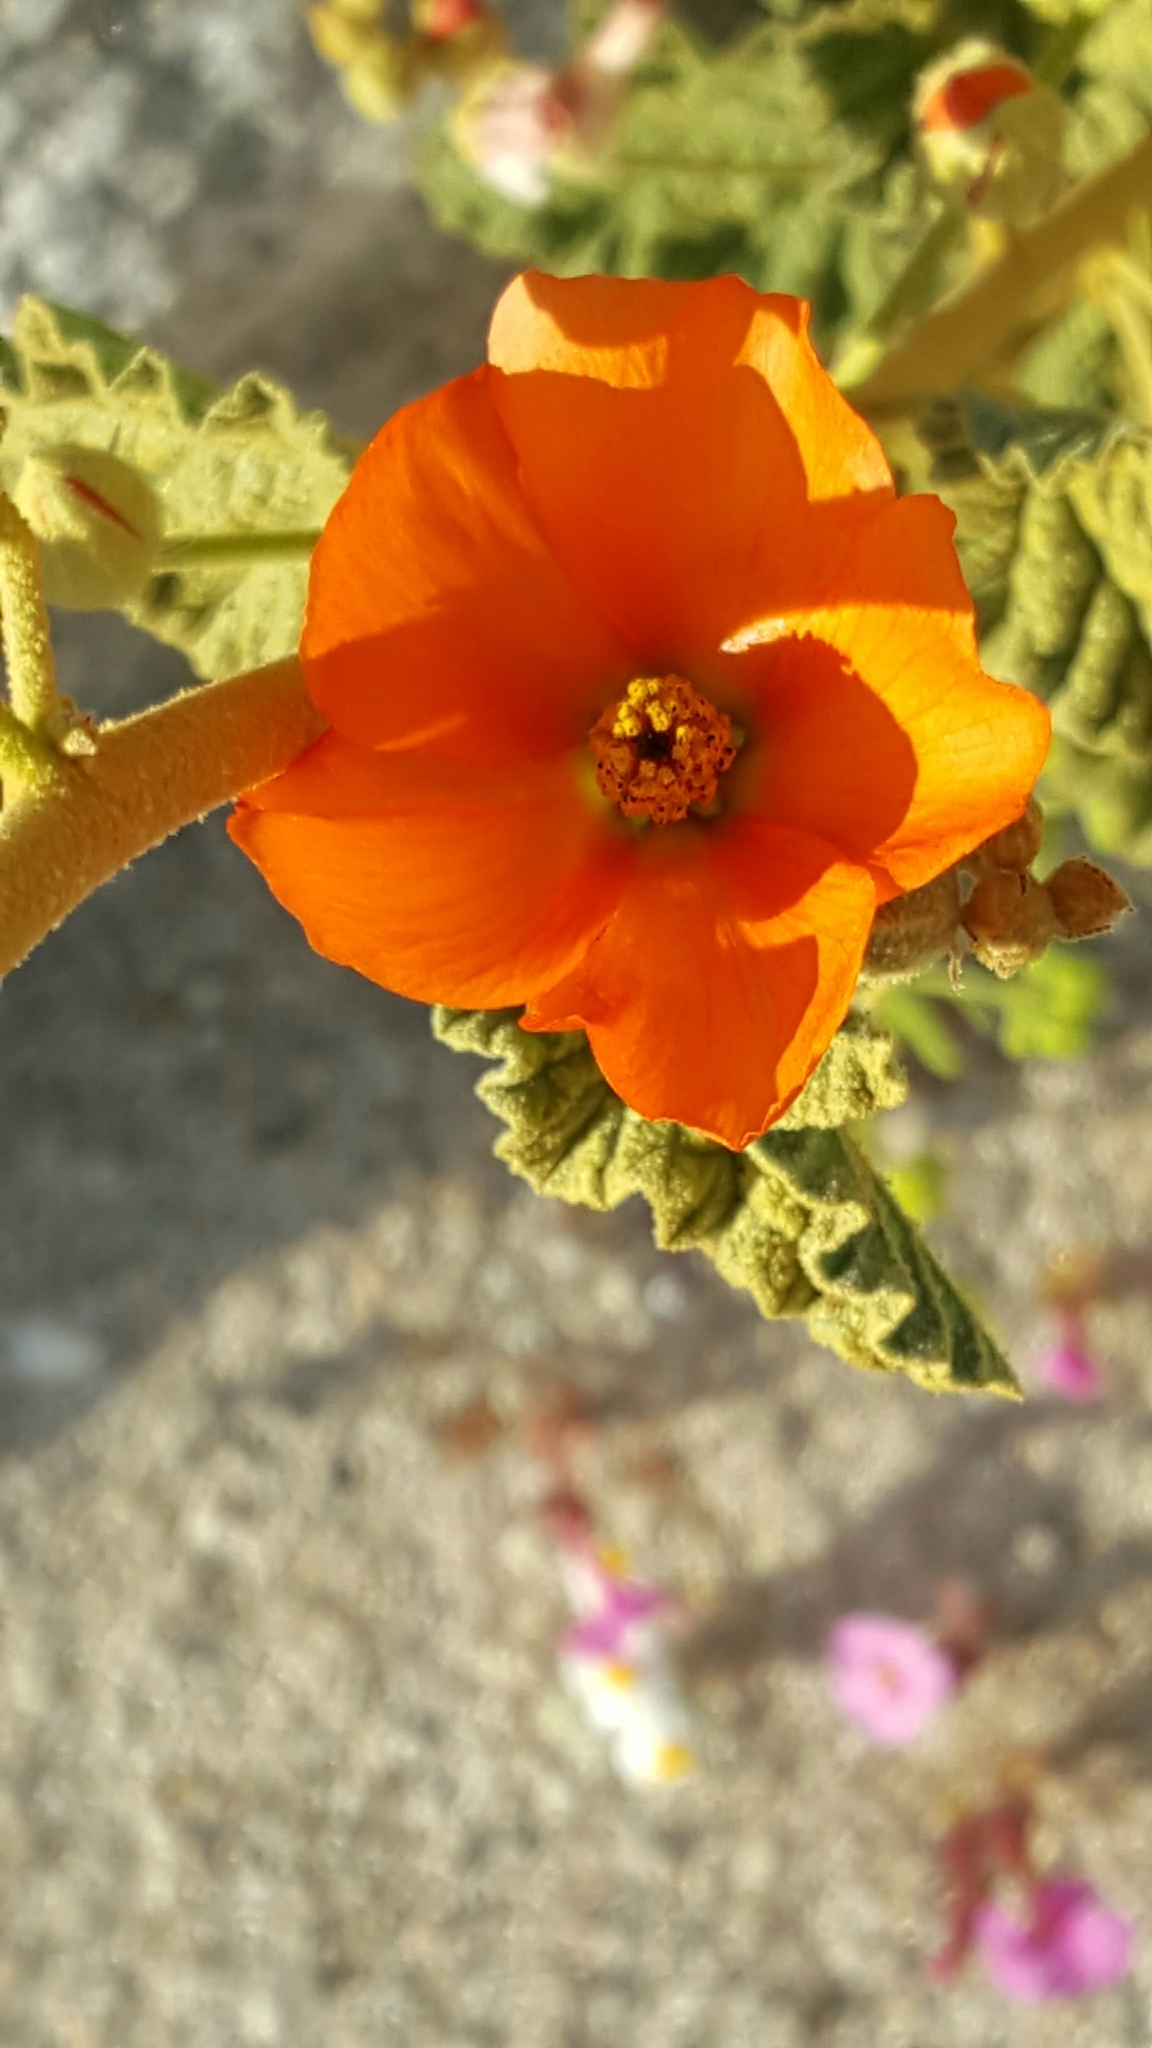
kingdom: Plantae
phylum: Tracheophyta
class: Magnoliopsida
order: Malvales
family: Malvaceae
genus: Sphaeralcea
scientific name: Sphaeralcea ambigua
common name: Apricot globe-mallow
